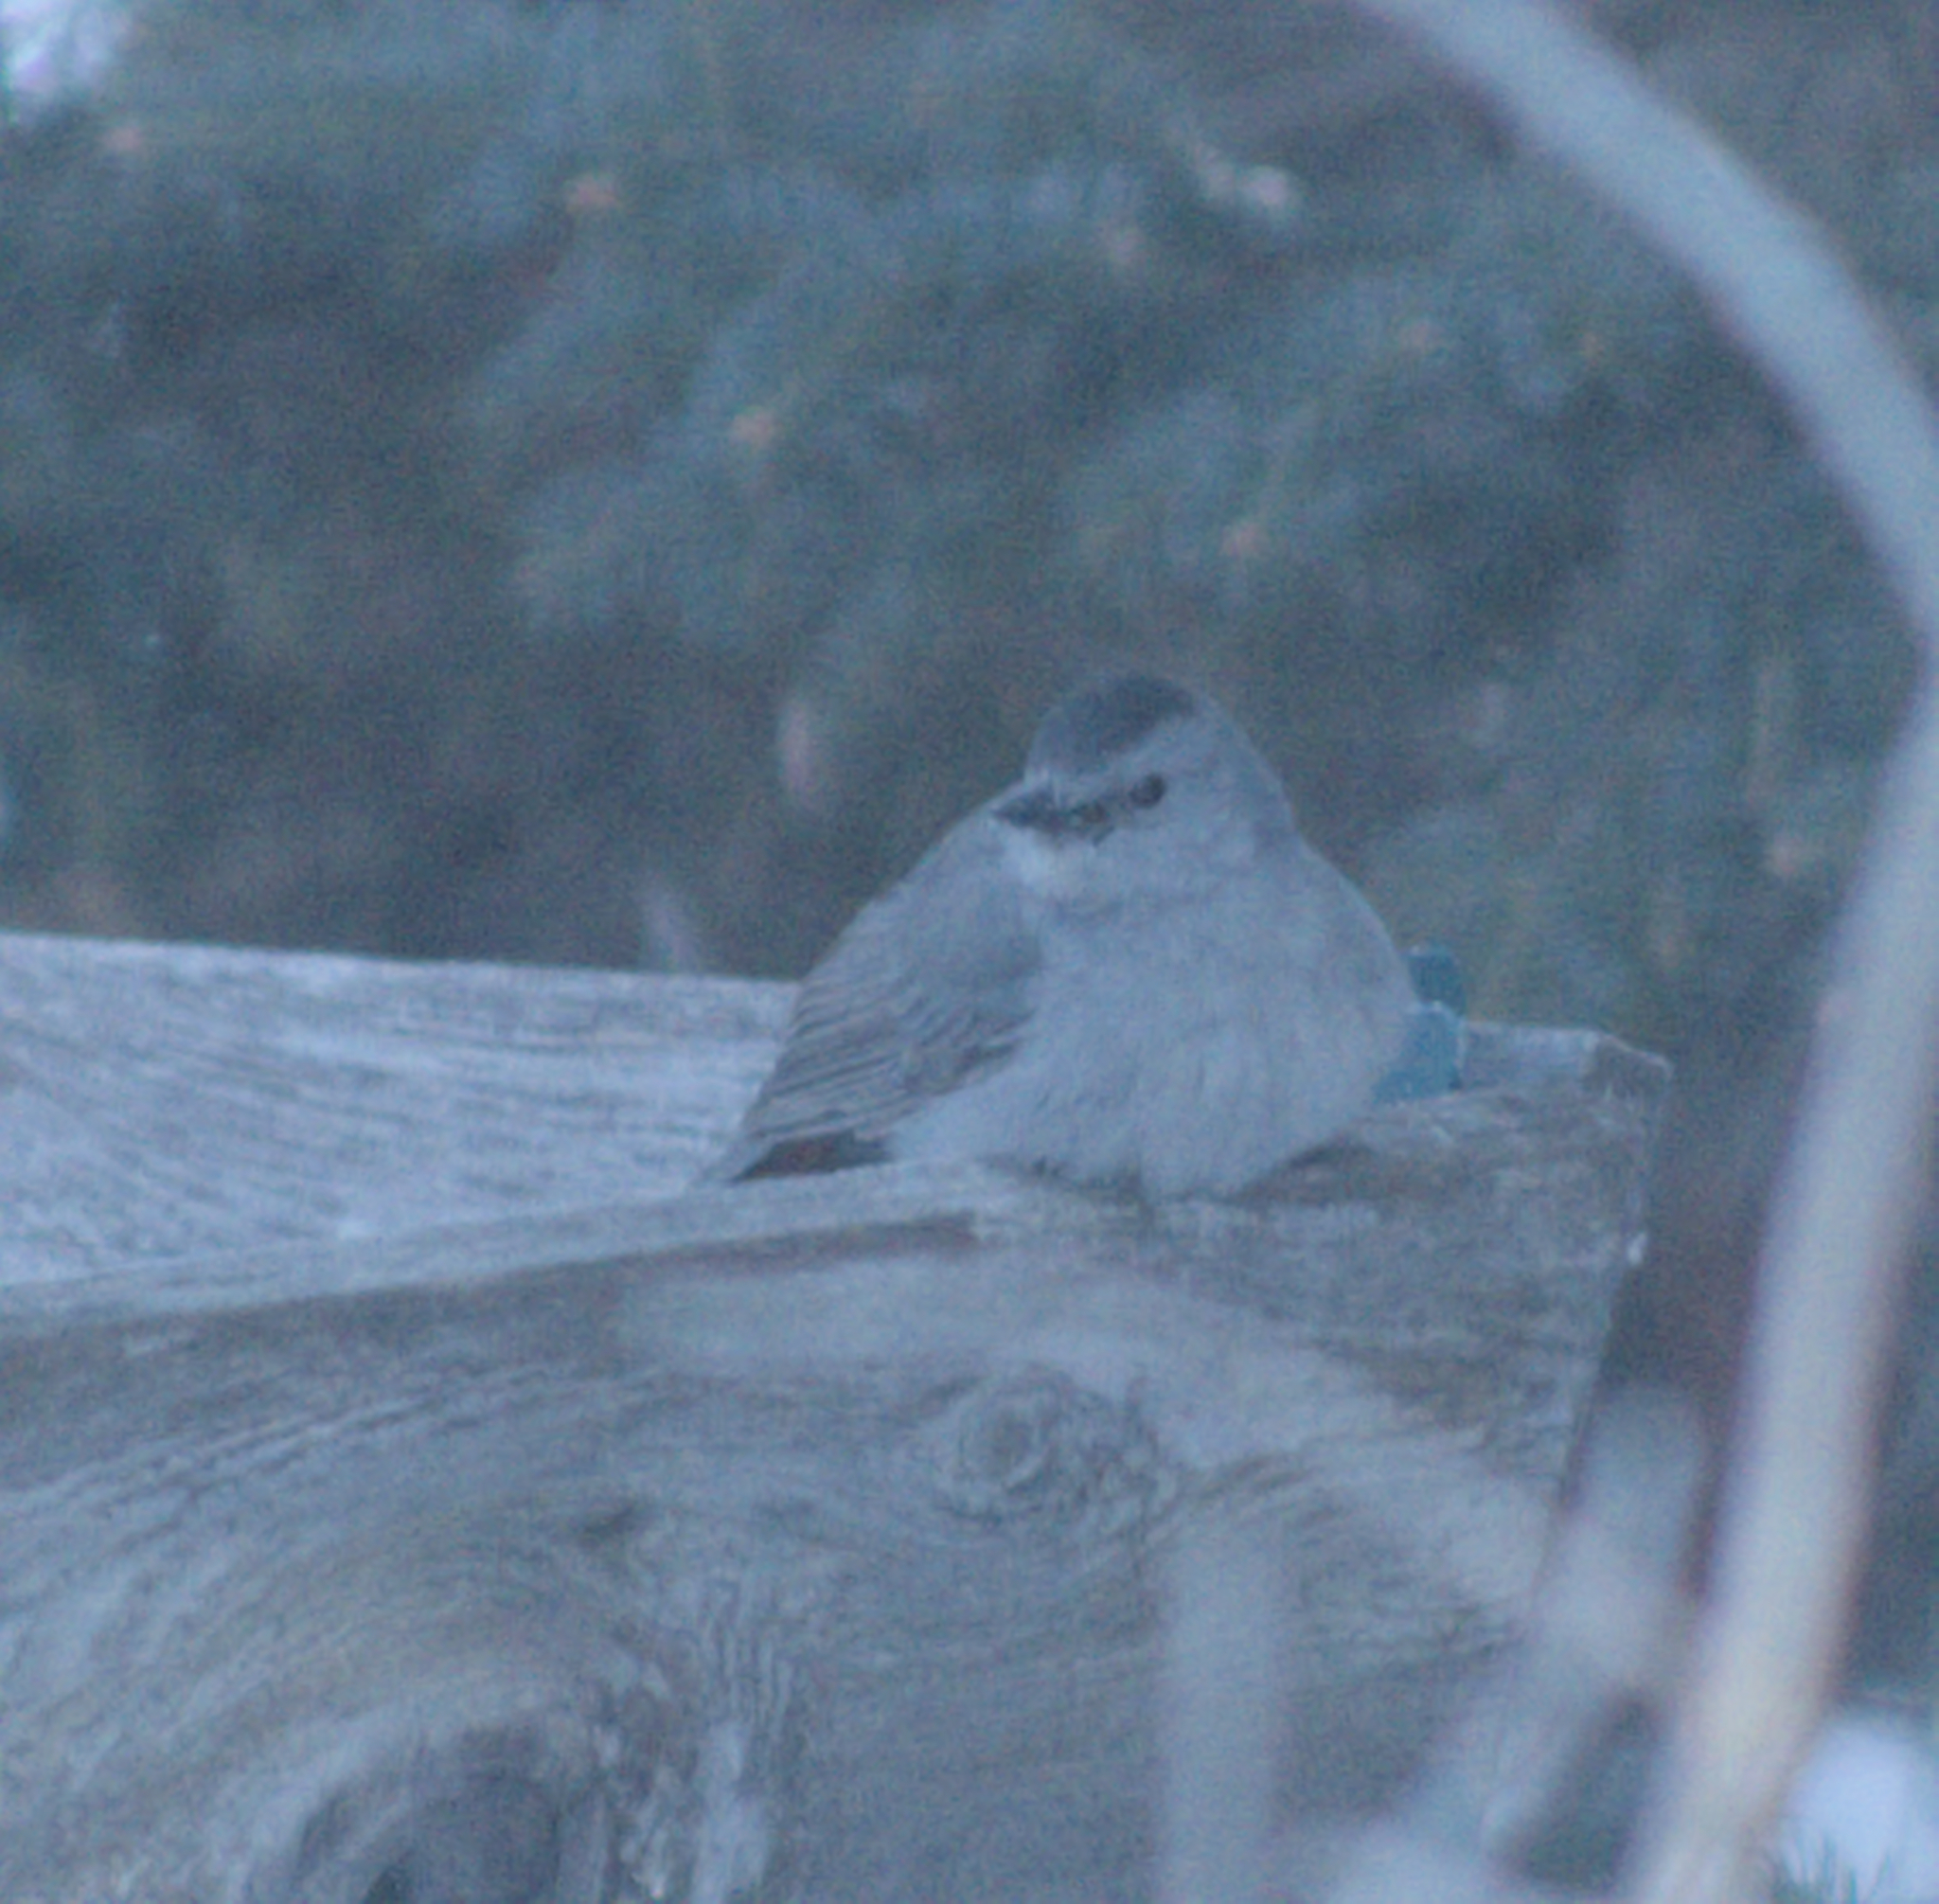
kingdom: Animalia
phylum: Chordata
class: Aves
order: Passeriformes
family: Mimidae
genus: Dumetella
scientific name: Dumetella carolinensis
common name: Gray catbird
